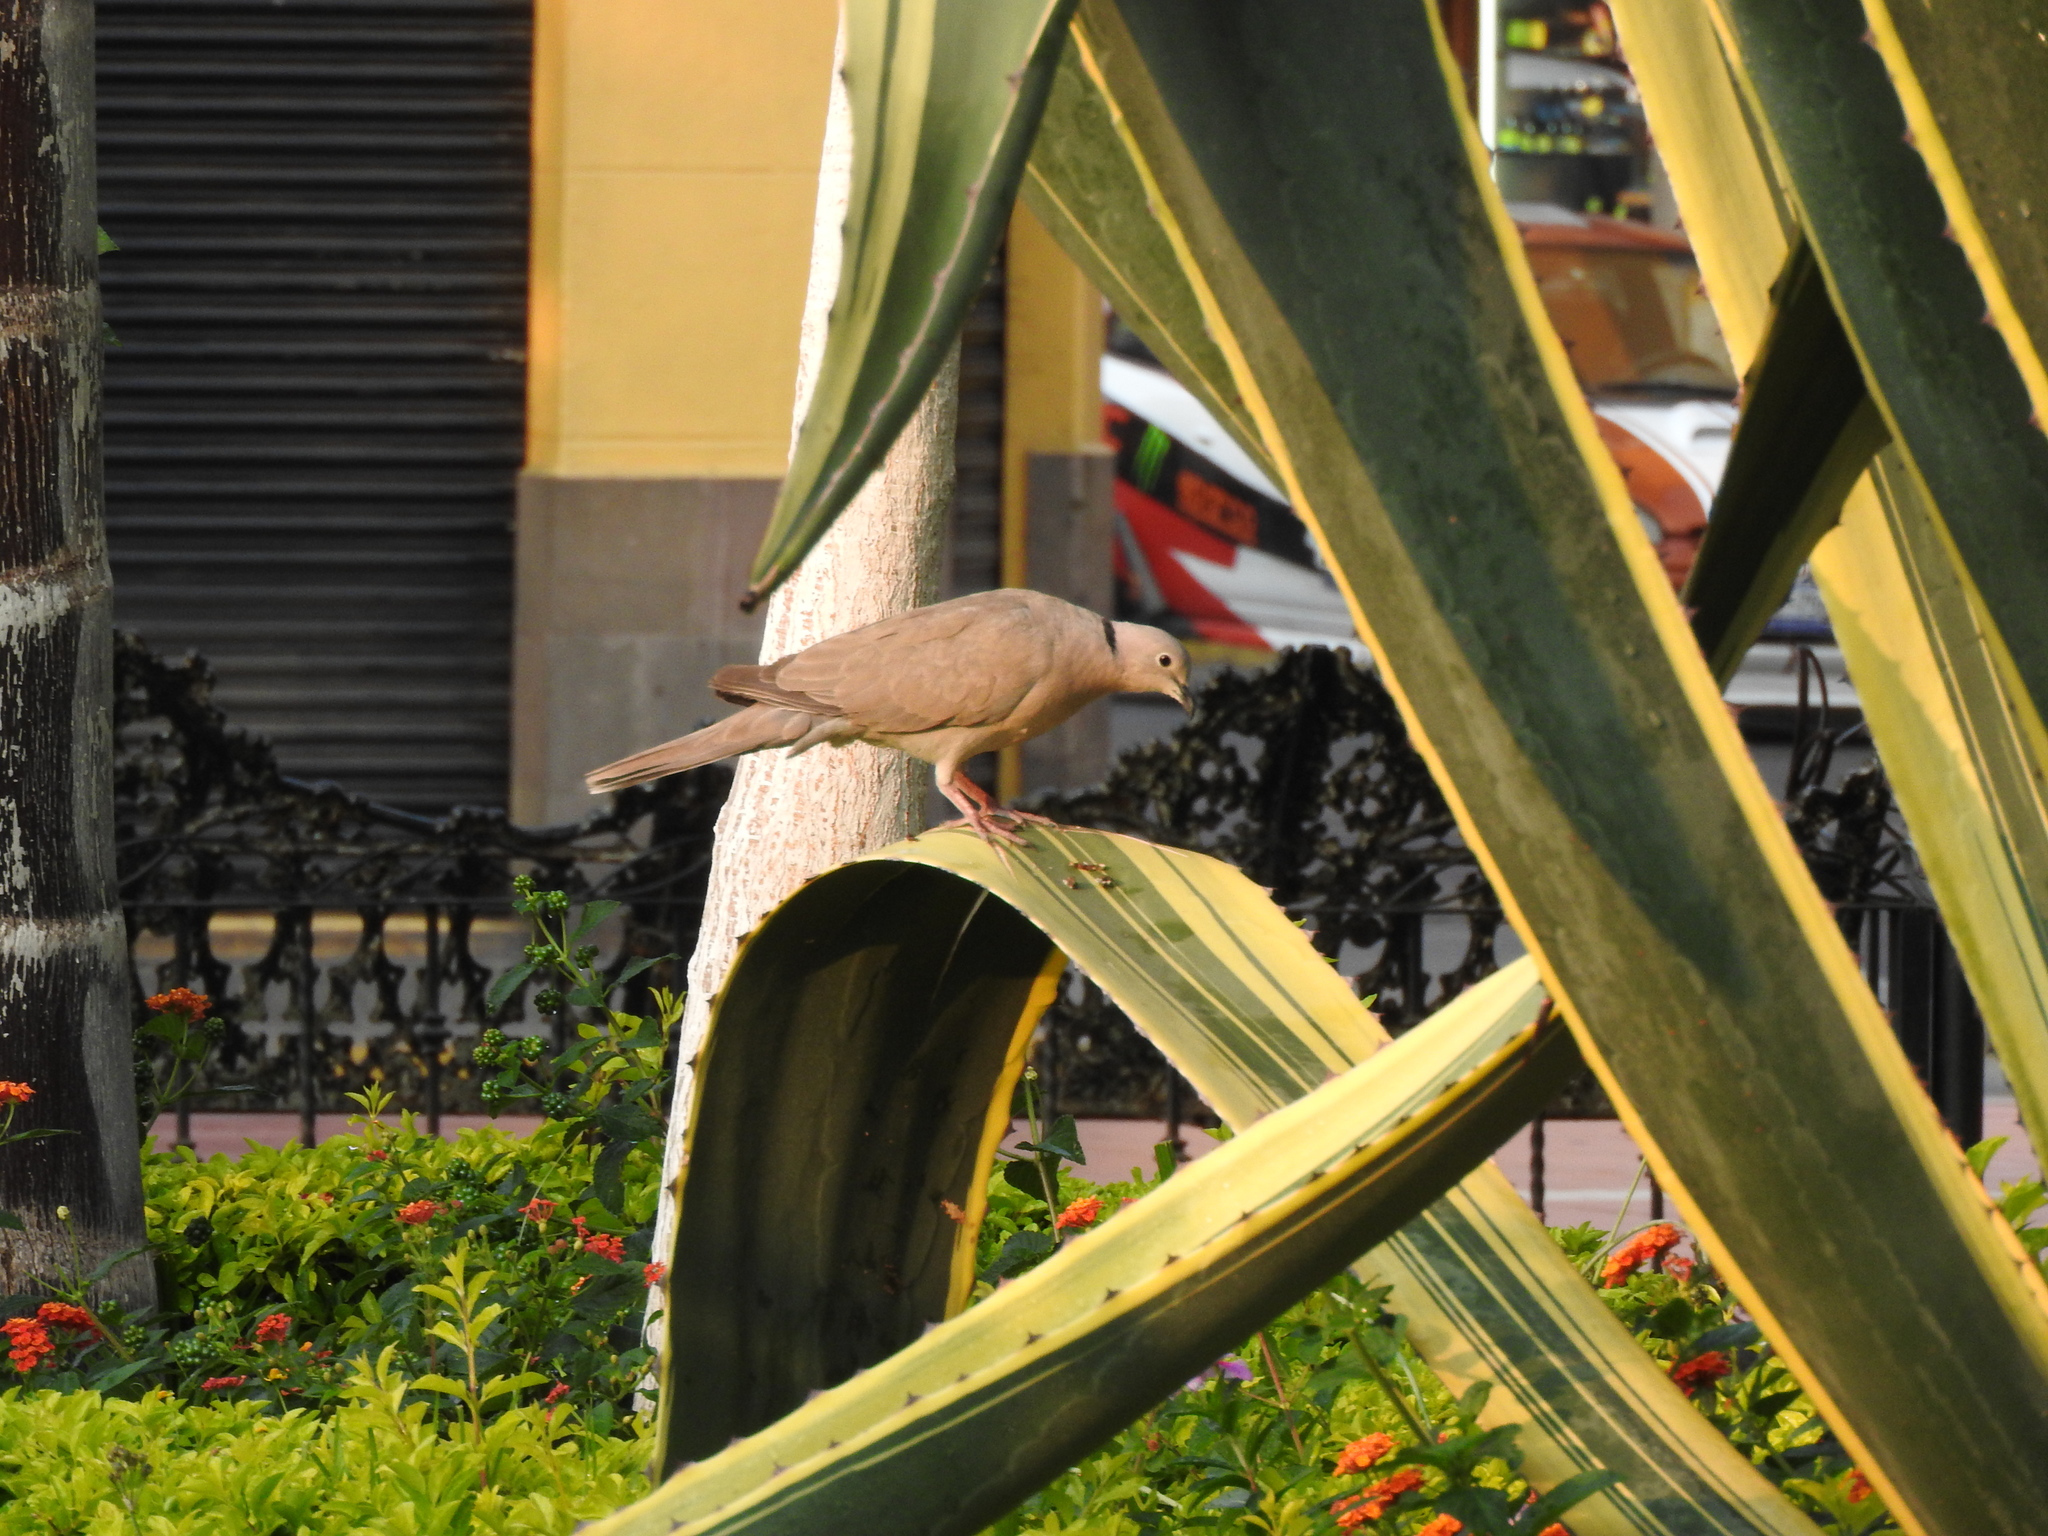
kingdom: Animalia
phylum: Chordata
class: Aves
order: Columbiformes
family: Columbidae
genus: Streptopelia
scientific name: Streptopelia decaocto
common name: Eurasian collared dove
